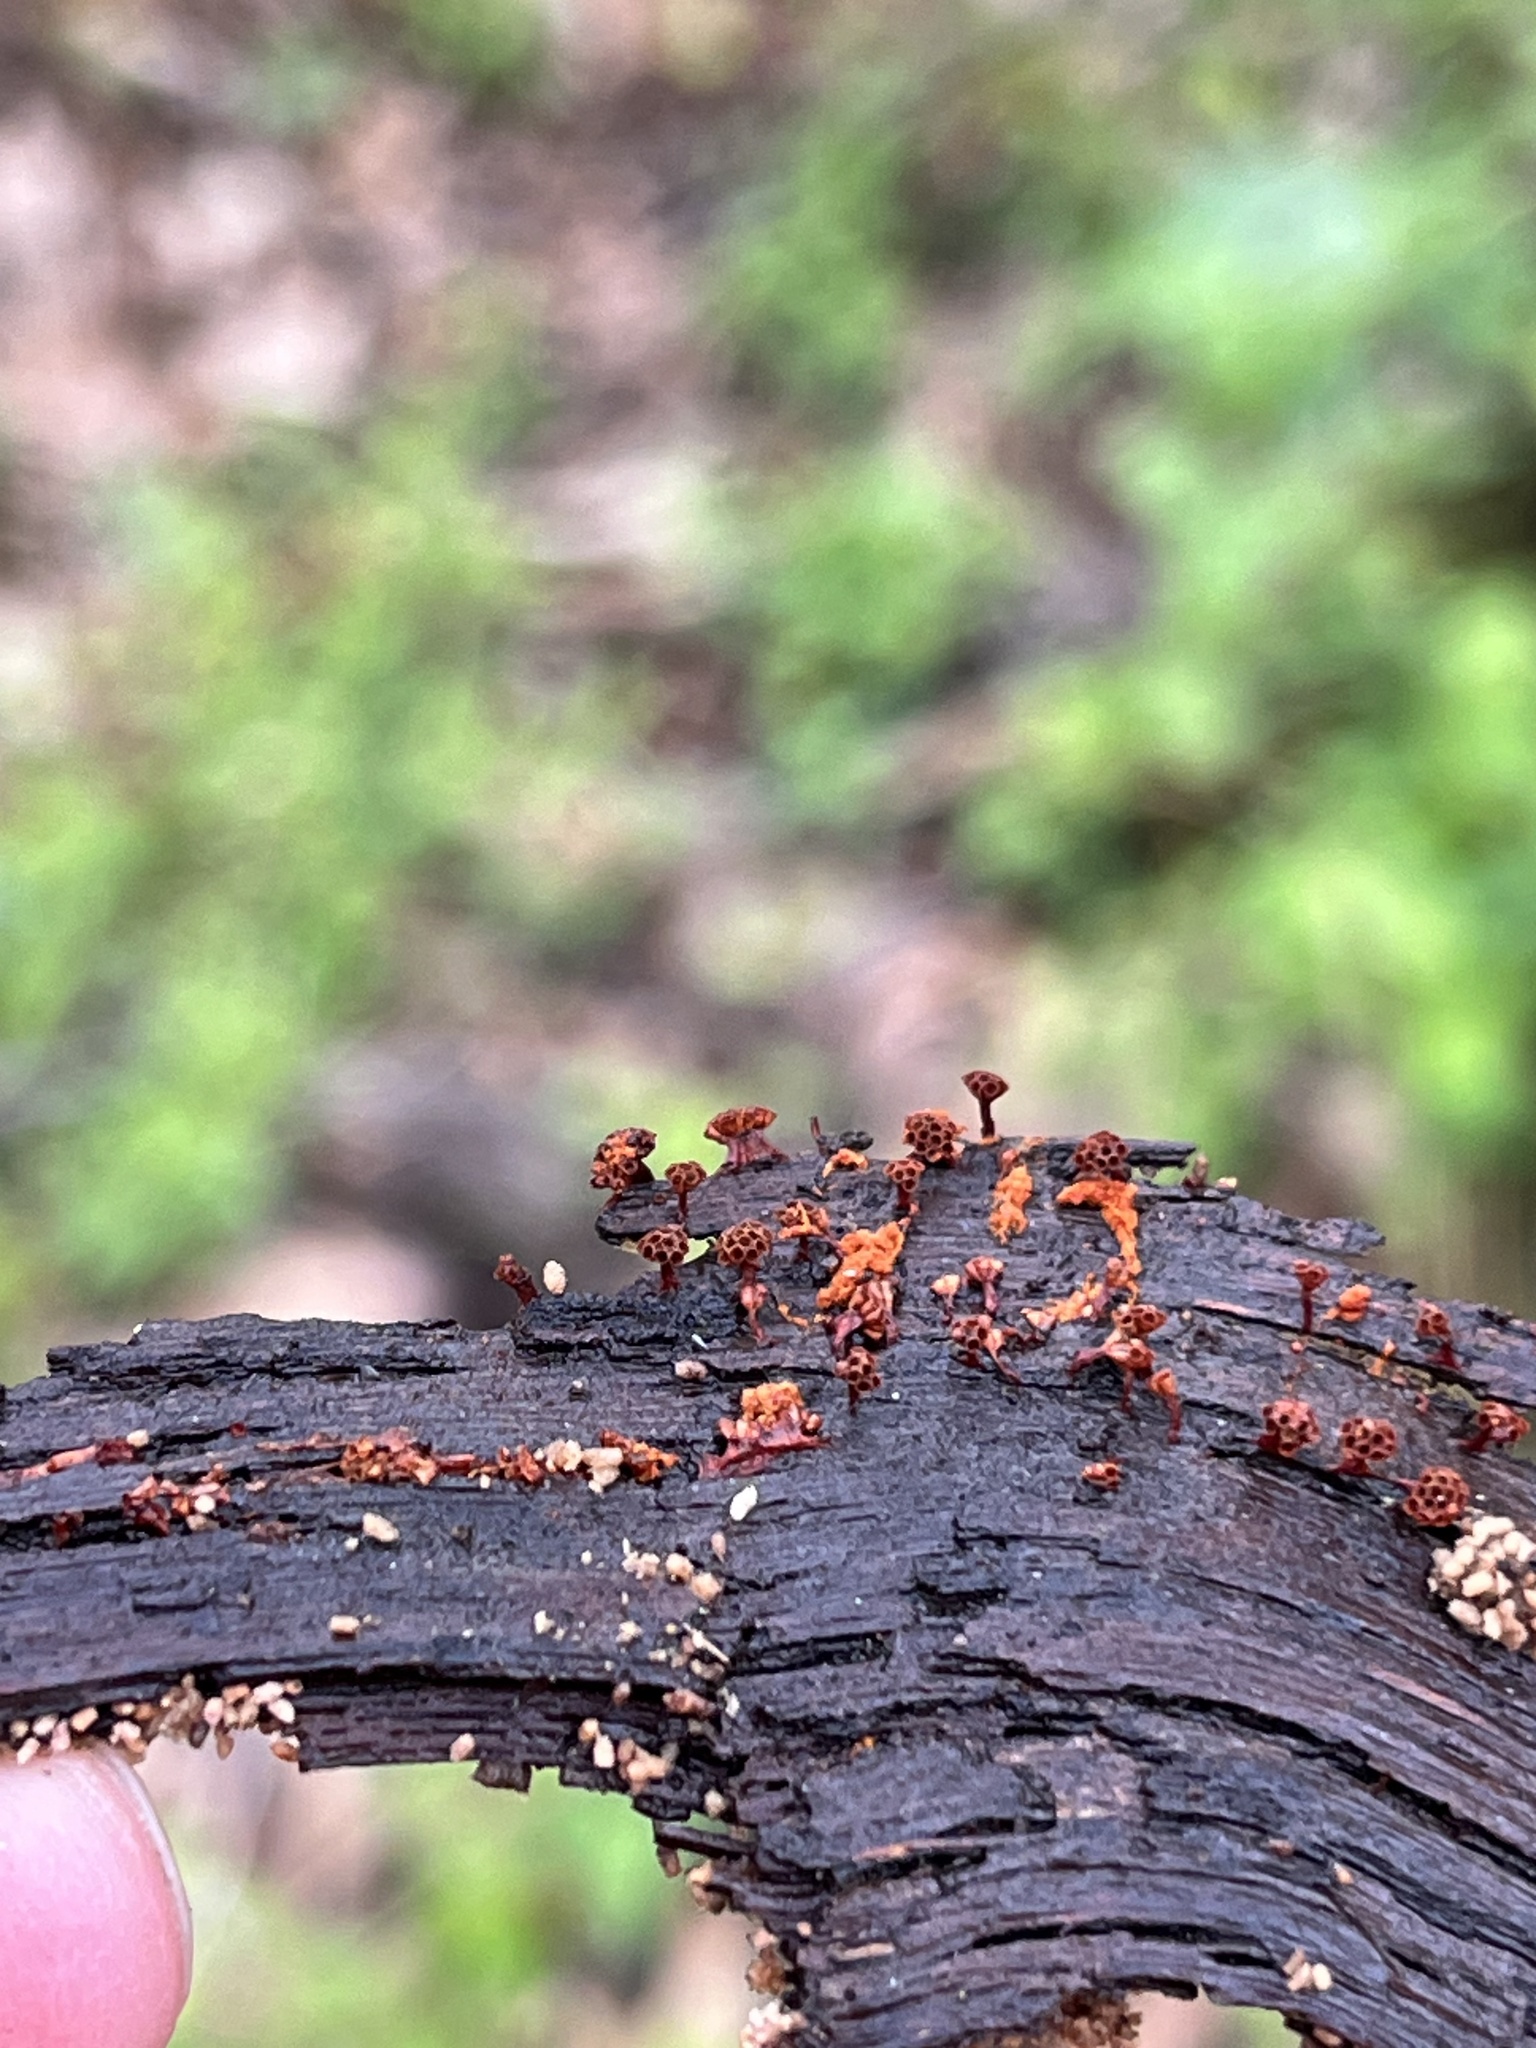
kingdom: Protozoa
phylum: Mycetozoa
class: Myxomycetes
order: Trichiales
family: Trichiaceae
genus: Metatrichia
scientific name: Metatrichia vesparia
